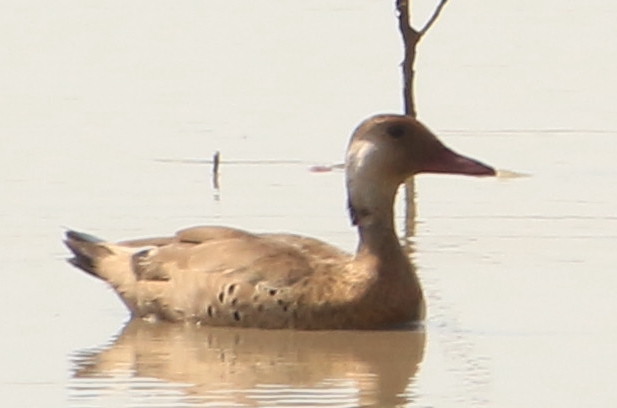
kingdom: Animalia
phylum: Chordata
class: Aves
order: Anseriformes
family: Anatidae
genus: Amazonetta
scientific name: Amazonetta brasiliensis
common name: Brazilian teal
